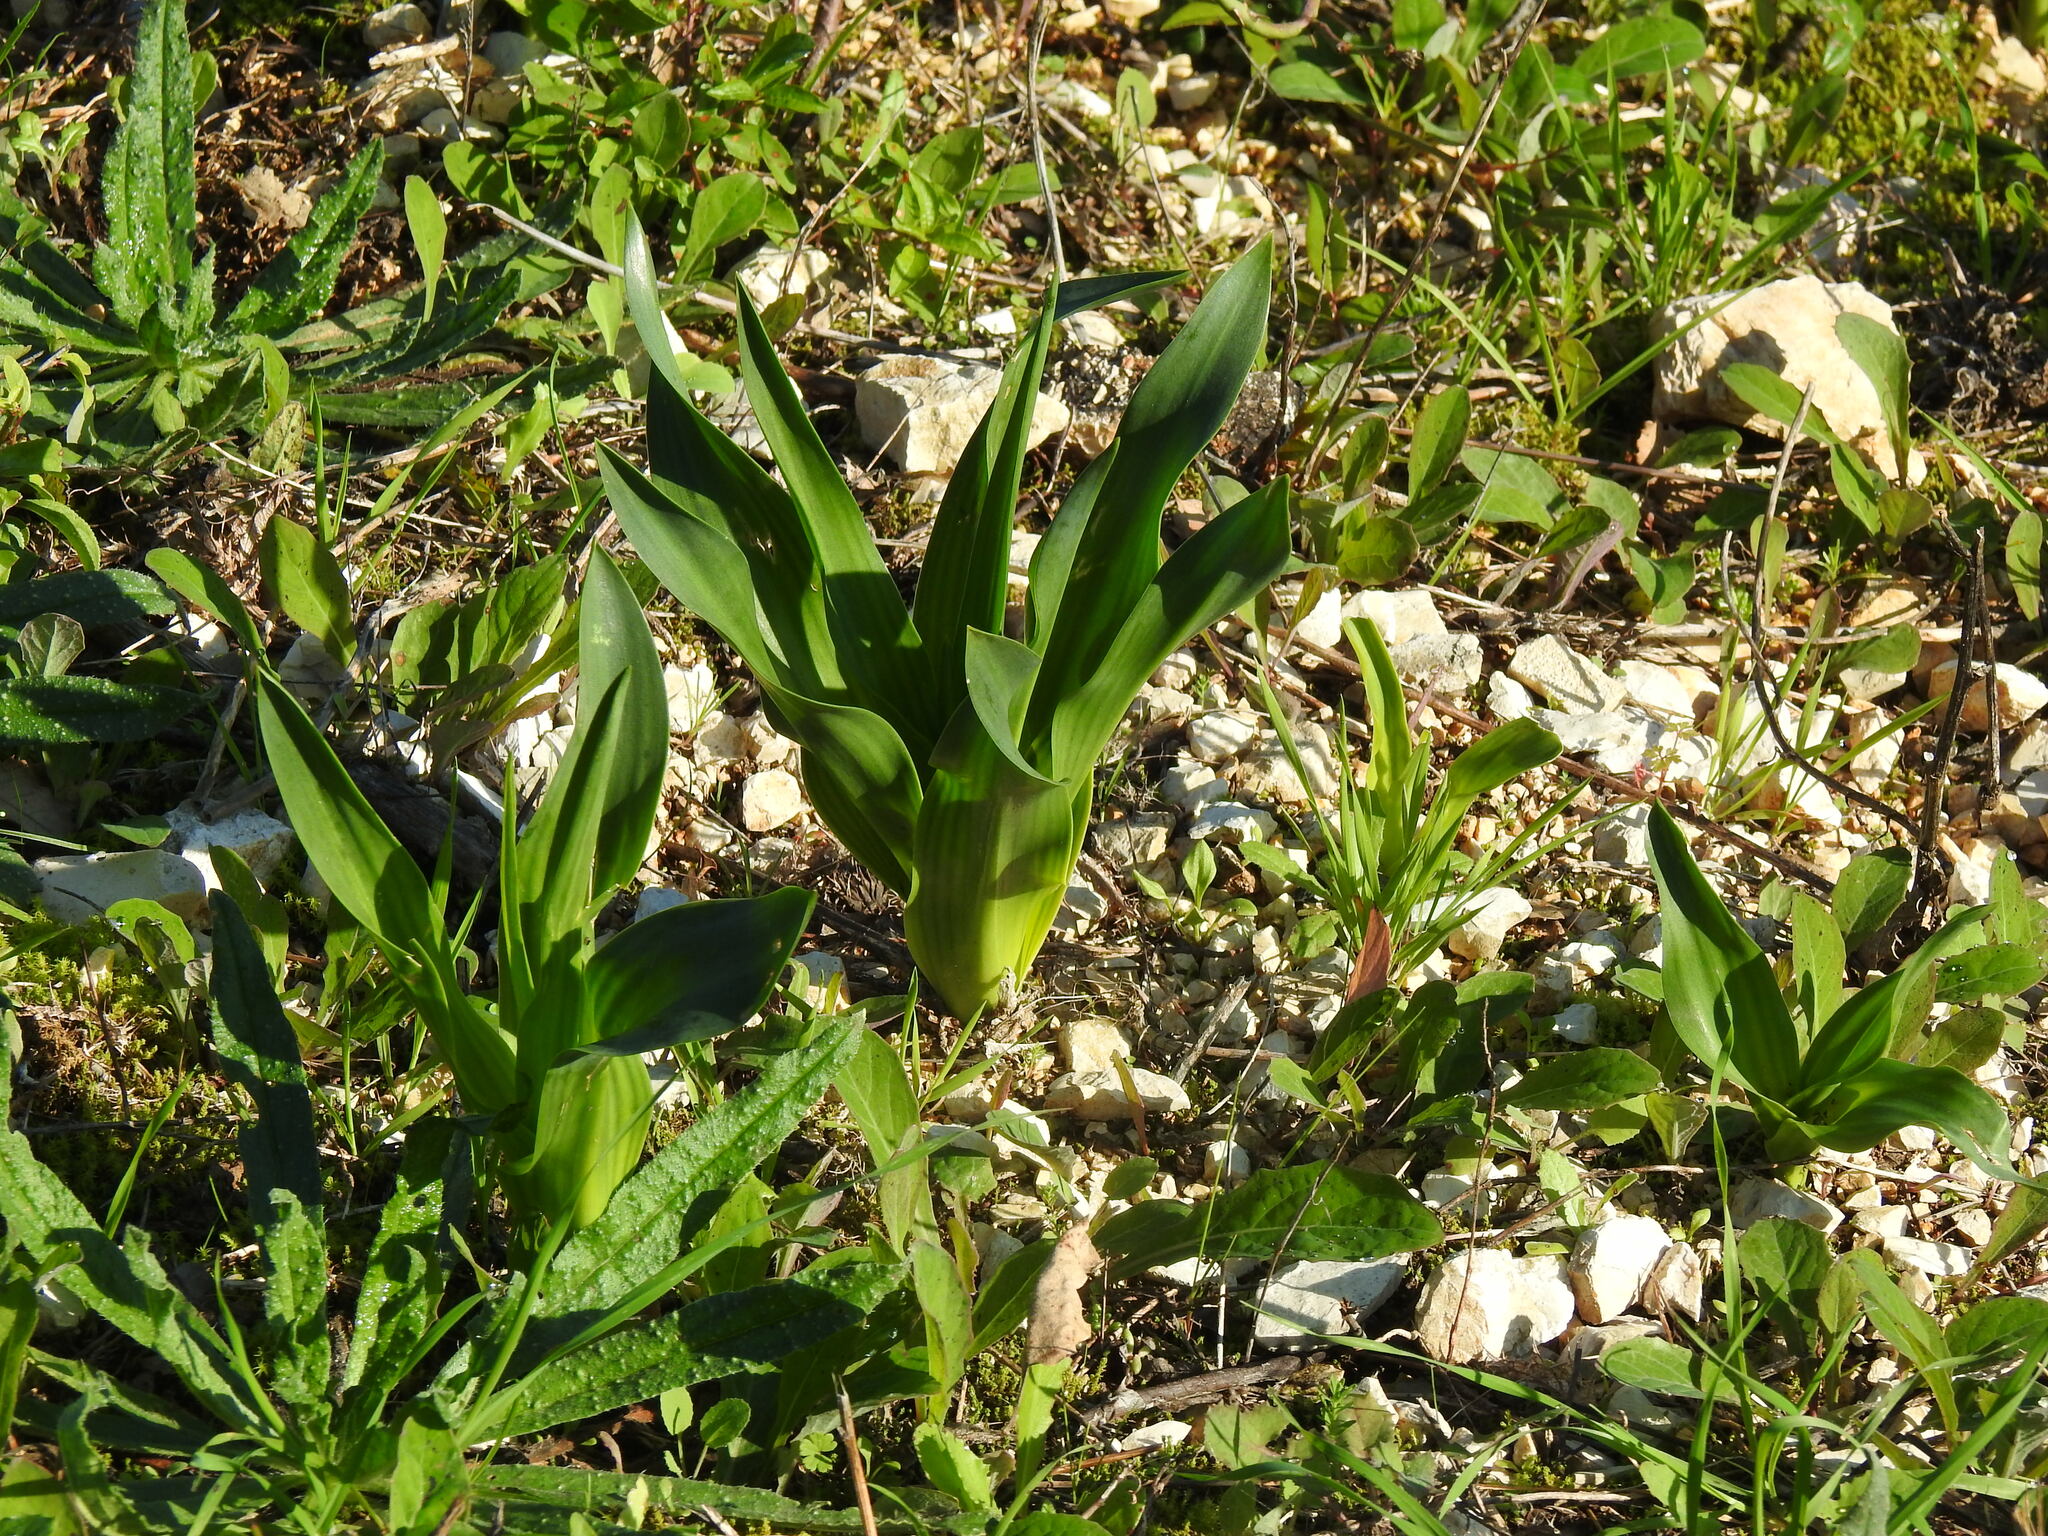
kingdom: Plantae
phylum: Tracheophyta
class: Liliopsida
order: Asparagales
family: Asparagaceae
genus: Drimia
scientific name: Drimia maritima
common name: Maritime squill
